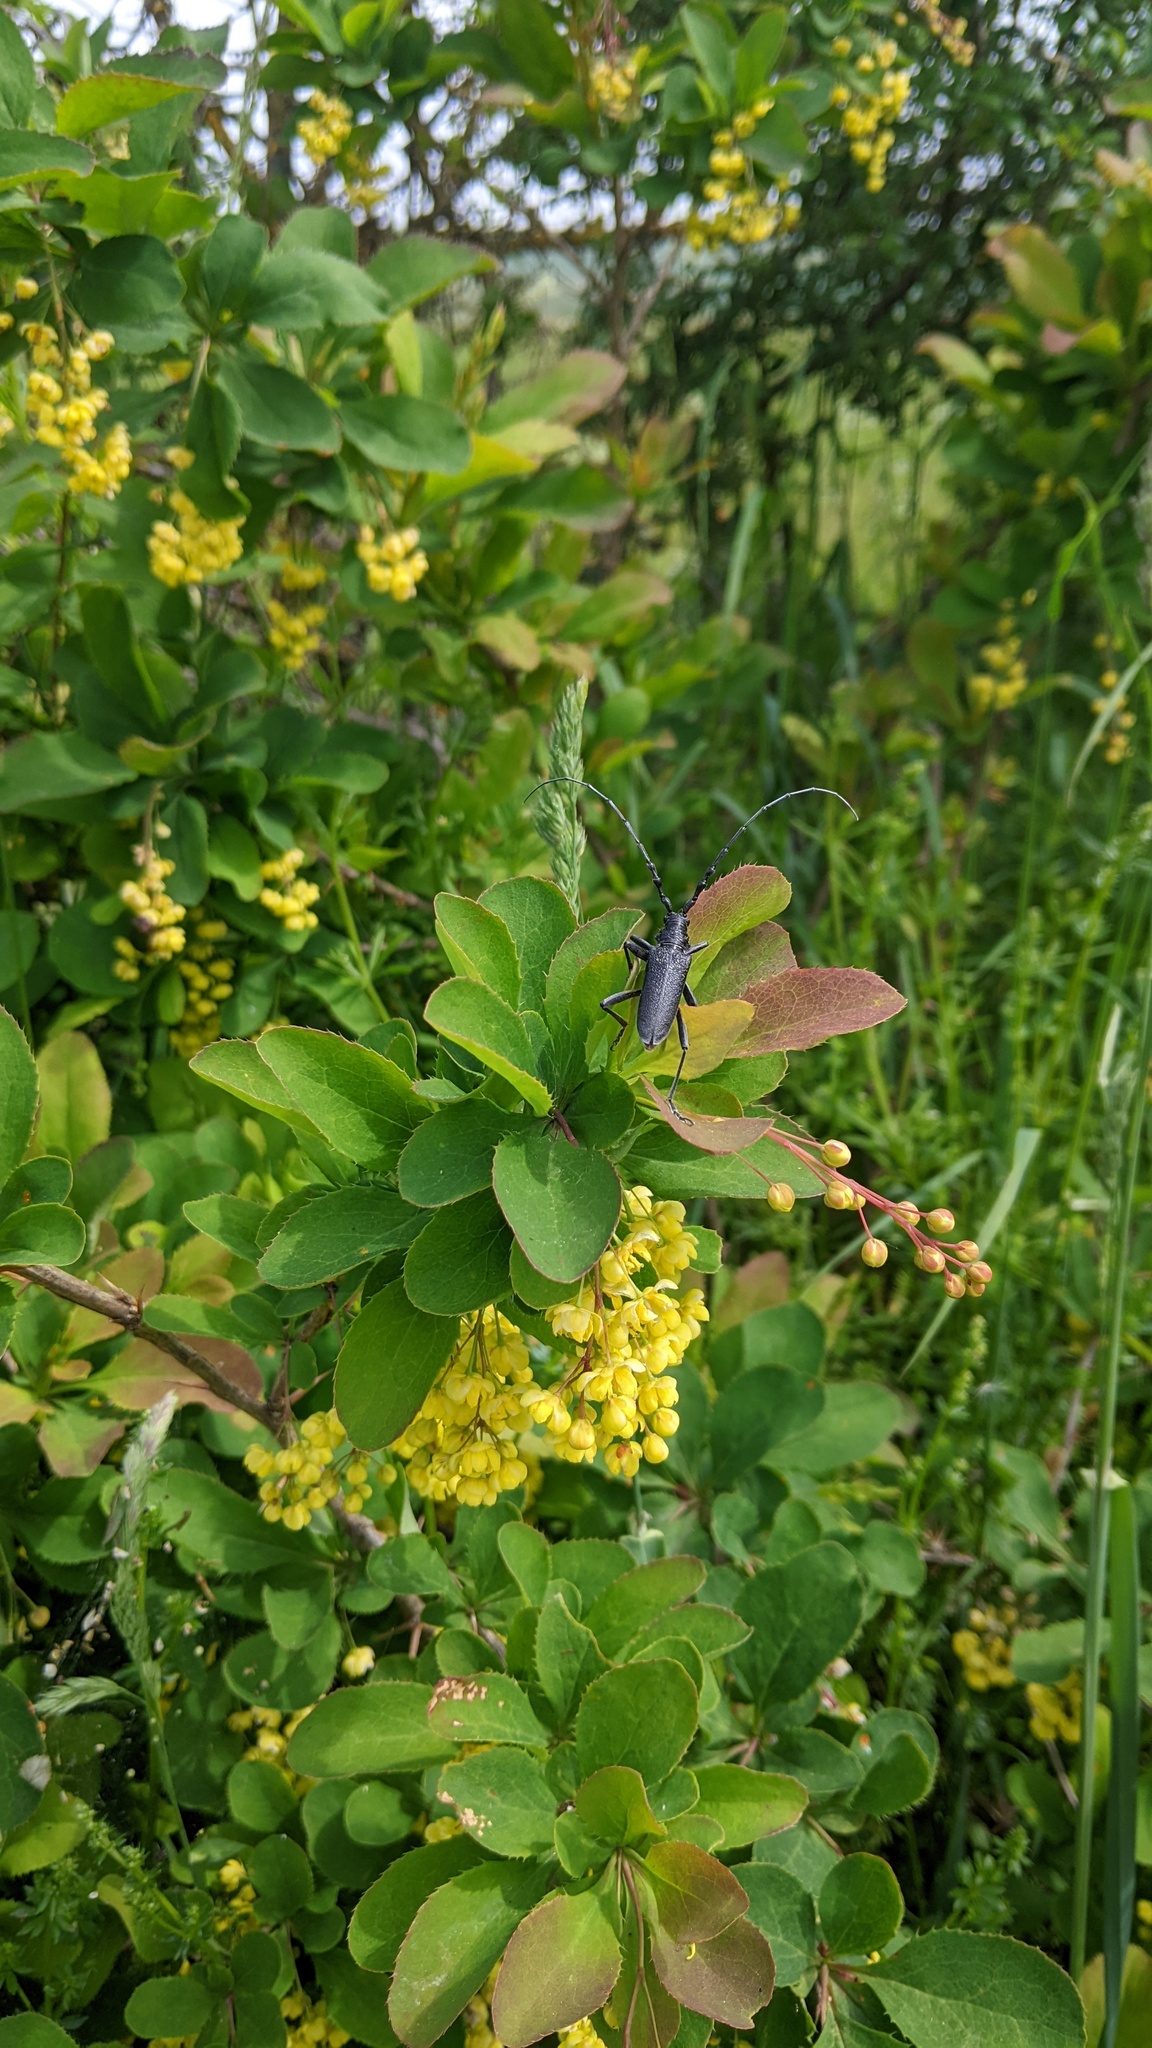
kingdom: Animalia
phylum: Arthropoda
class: Insecta
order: Coleoptera
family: Cerambycidae
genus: Cerambyx
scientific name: Cerambyx scopolii
